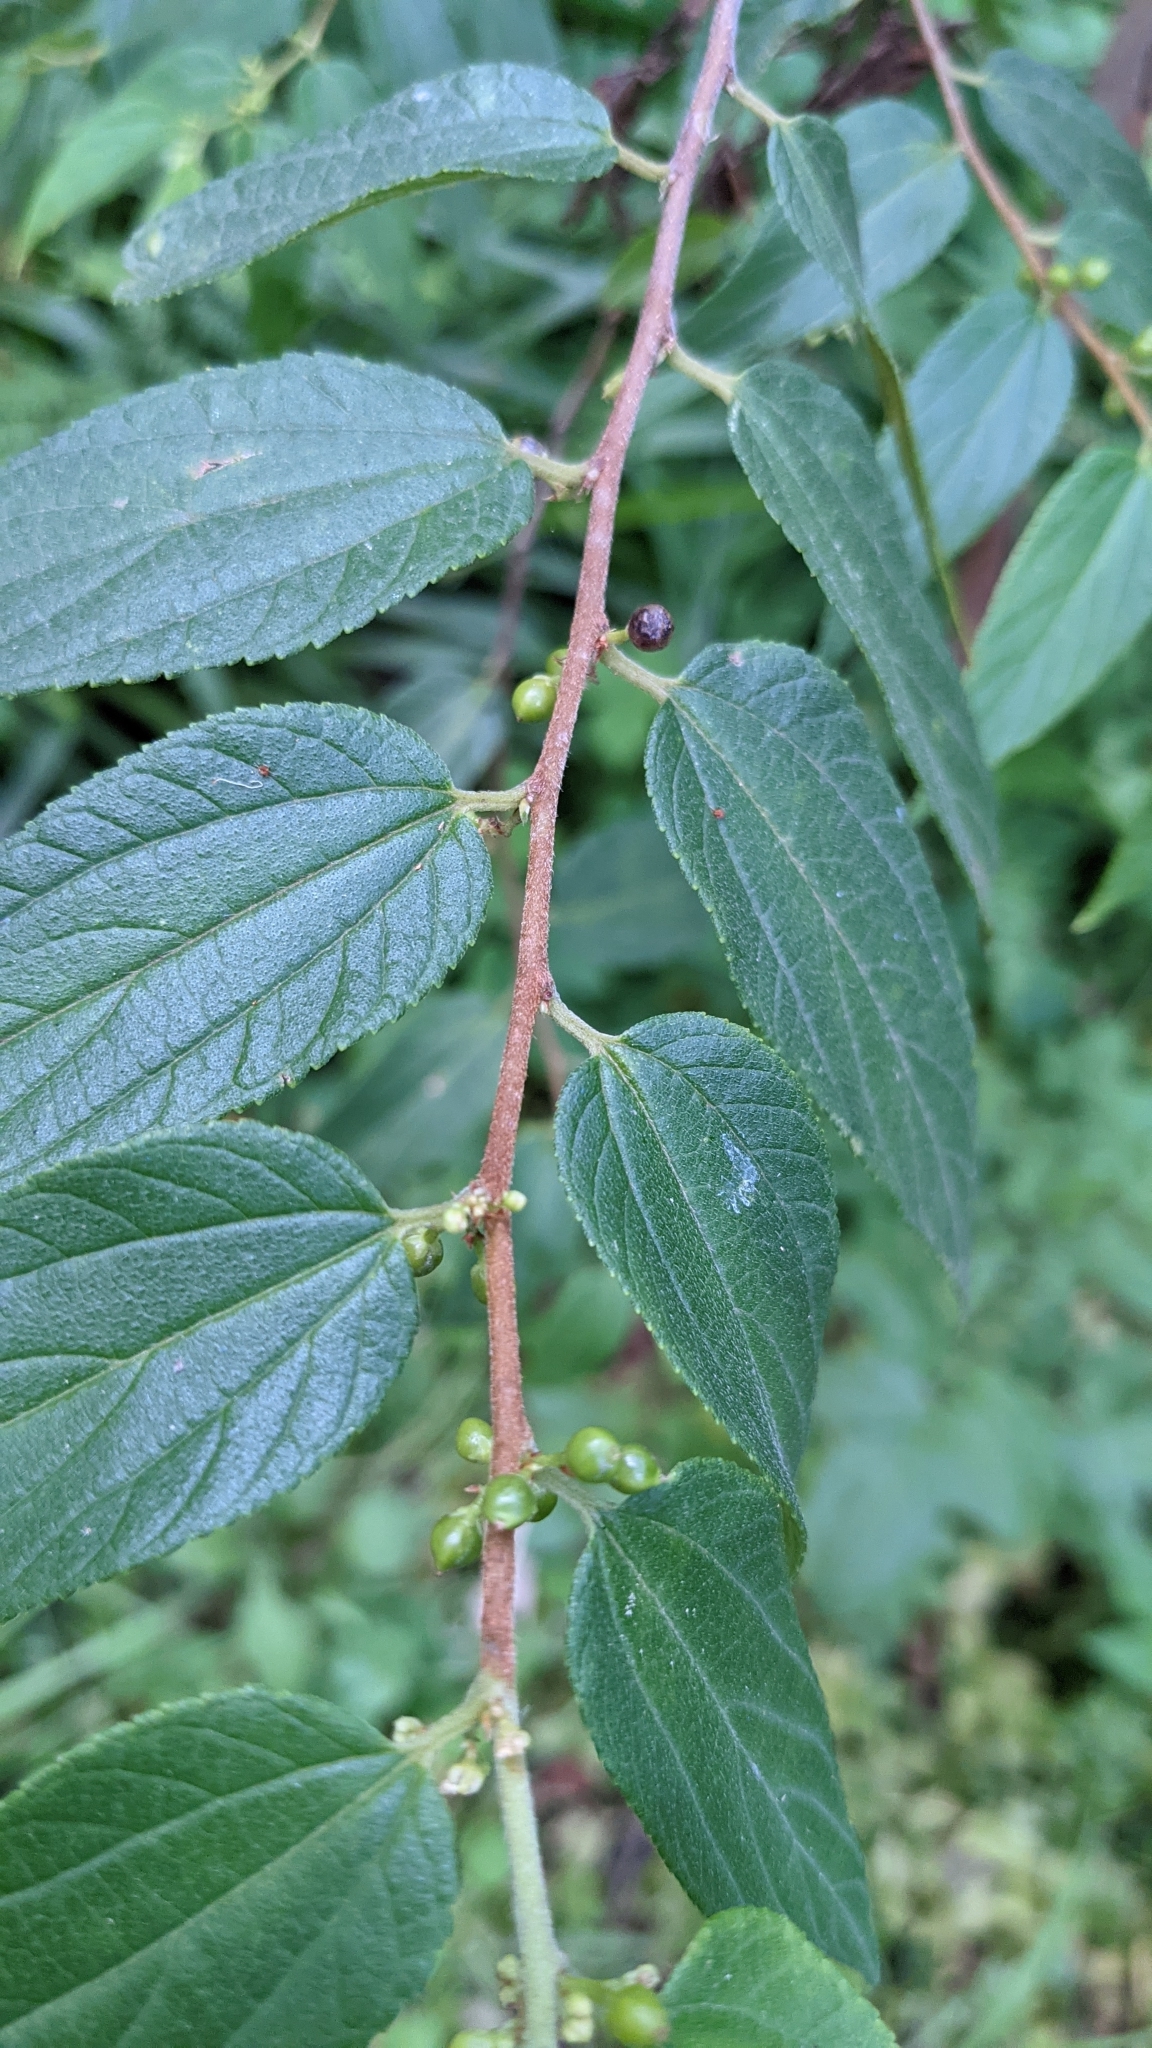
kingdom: Plantae
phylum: Tracheophyta
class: Magnoliopsida
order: Rosales
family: Cannabaceae
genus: Trema
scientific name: Trema tomentosum
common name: Peach-leaf-poisonbush
